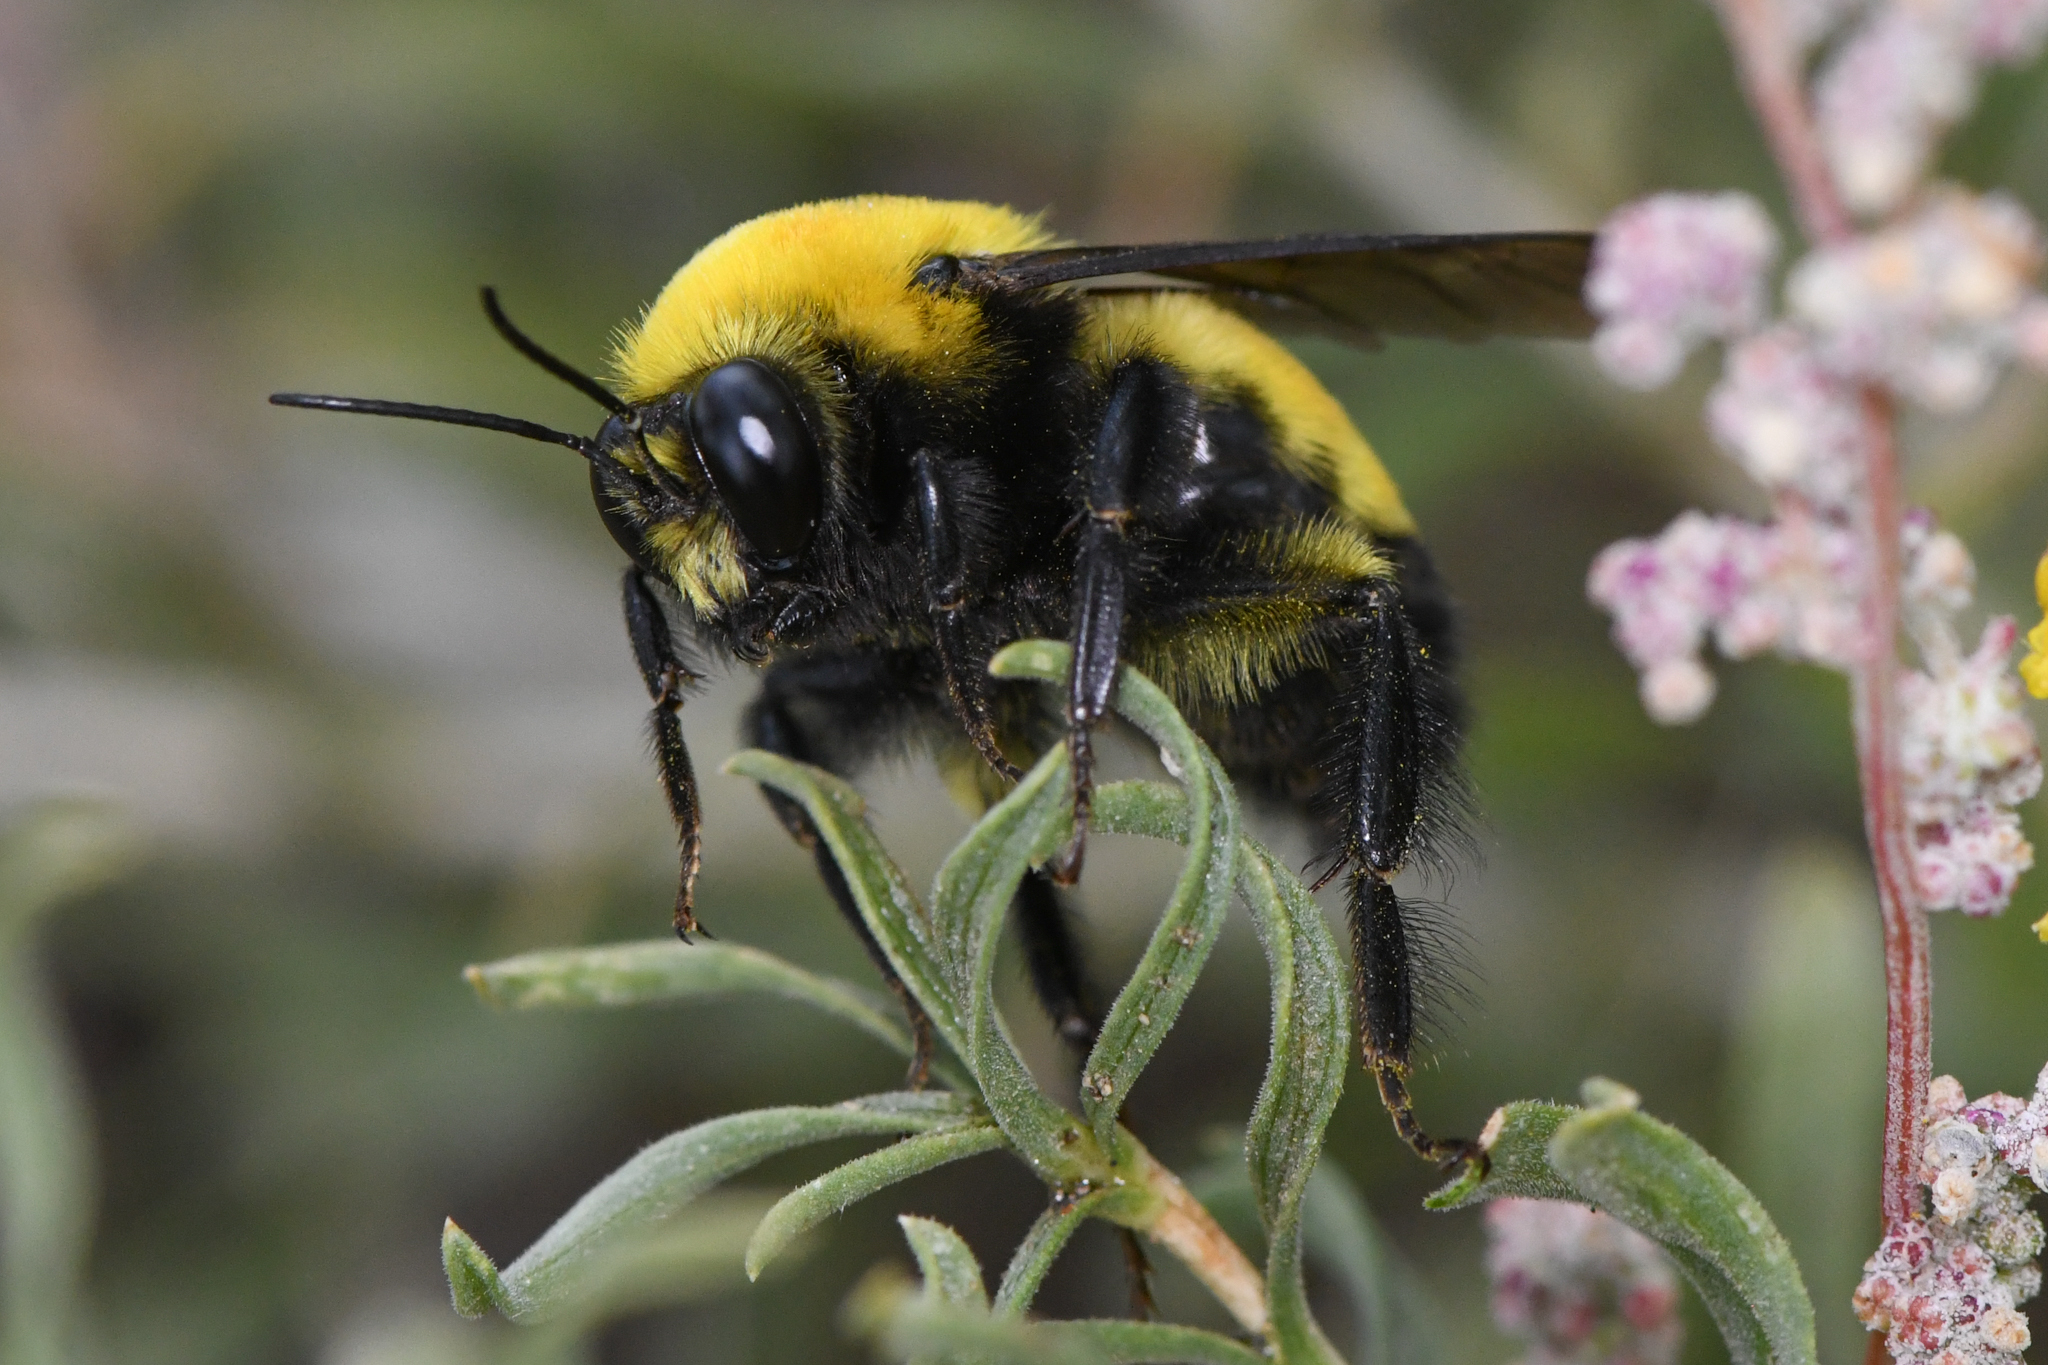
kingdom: Animalia
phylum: Arthropoda
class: Insecta
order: Hymenoptera
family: Apidae
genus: Bombus
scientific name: Bombus morrisoni
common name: Morrison bumble bee
